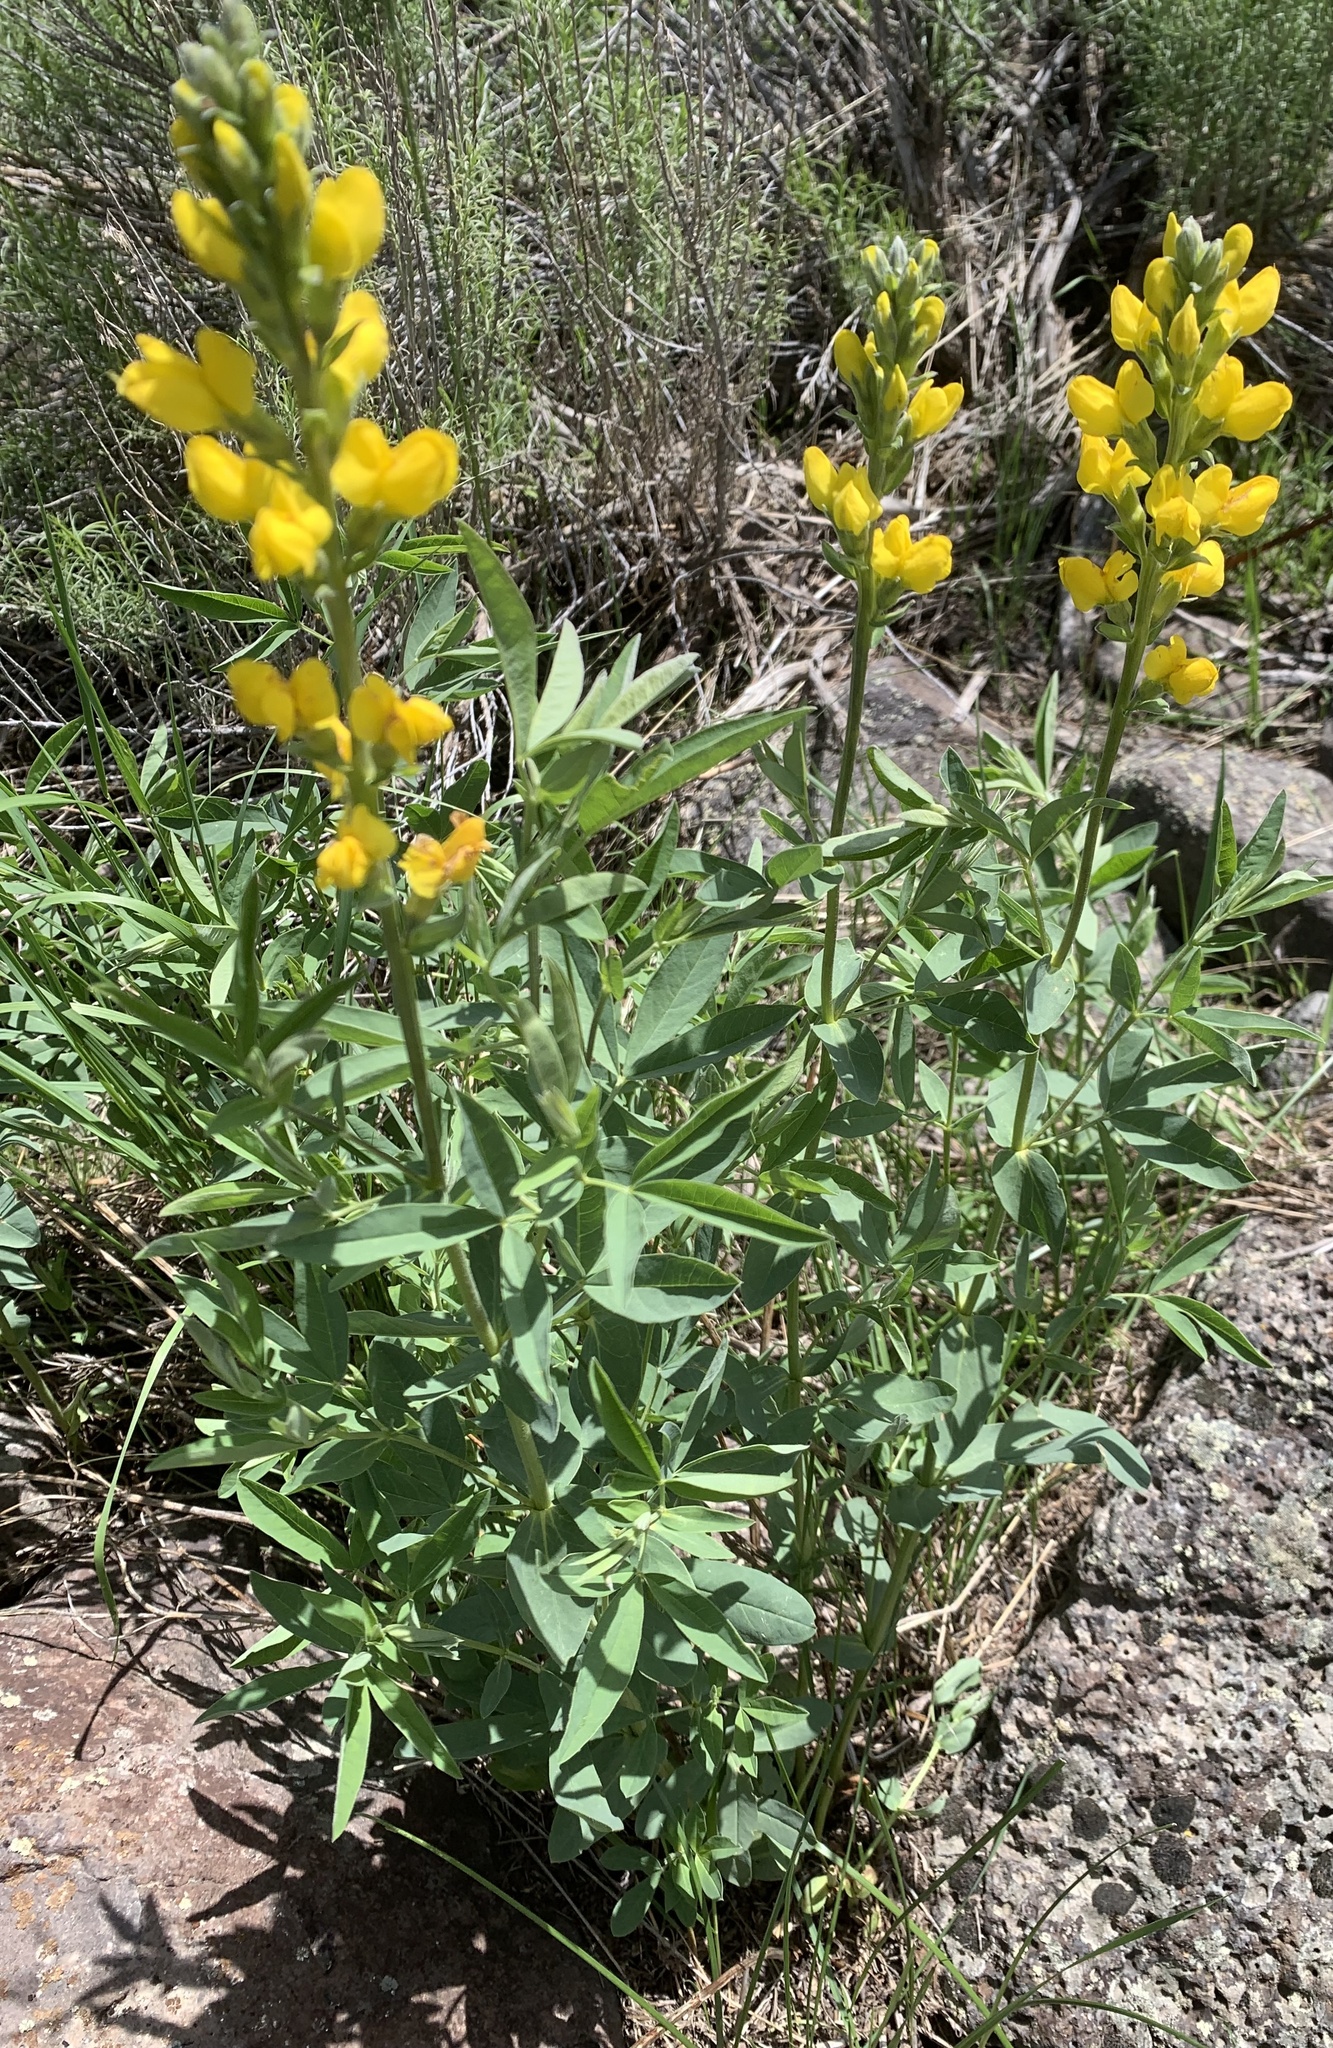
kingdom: Plantae
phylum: Tracheophyta
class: Magnoliopsida
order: Fabales
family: Fabaceae
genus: Thermopsis
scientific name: Thermopsis montana
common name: False lupin
